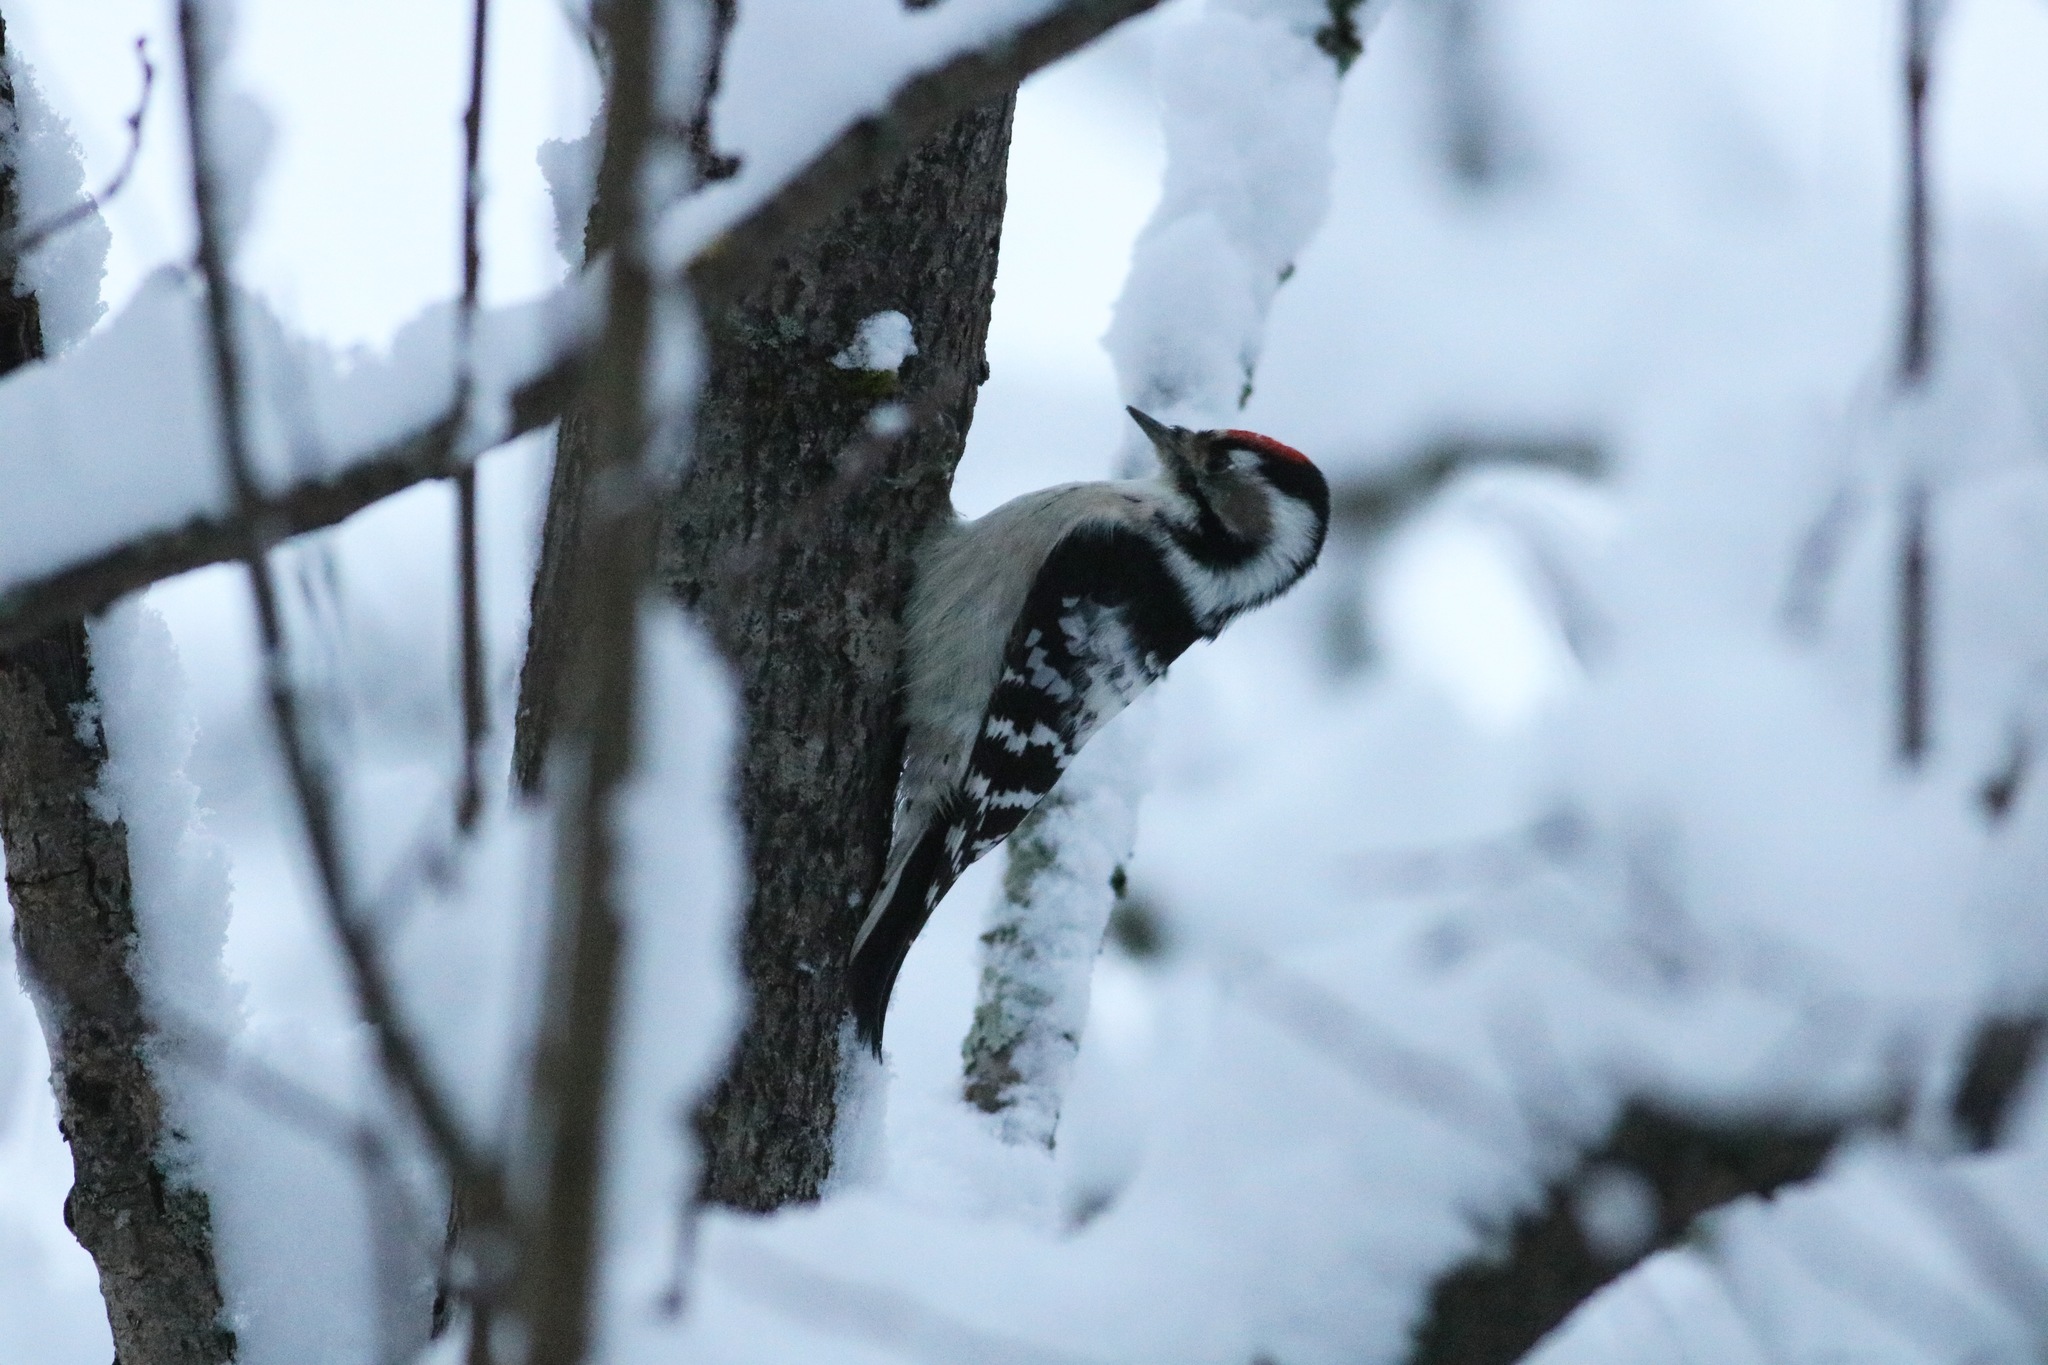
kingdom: Animalia
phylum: Chordata
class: Aves
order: Piciformes
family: Picidae
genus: Dryobates
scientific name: Dryobates minor
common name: Lesser spotted woodpecker
